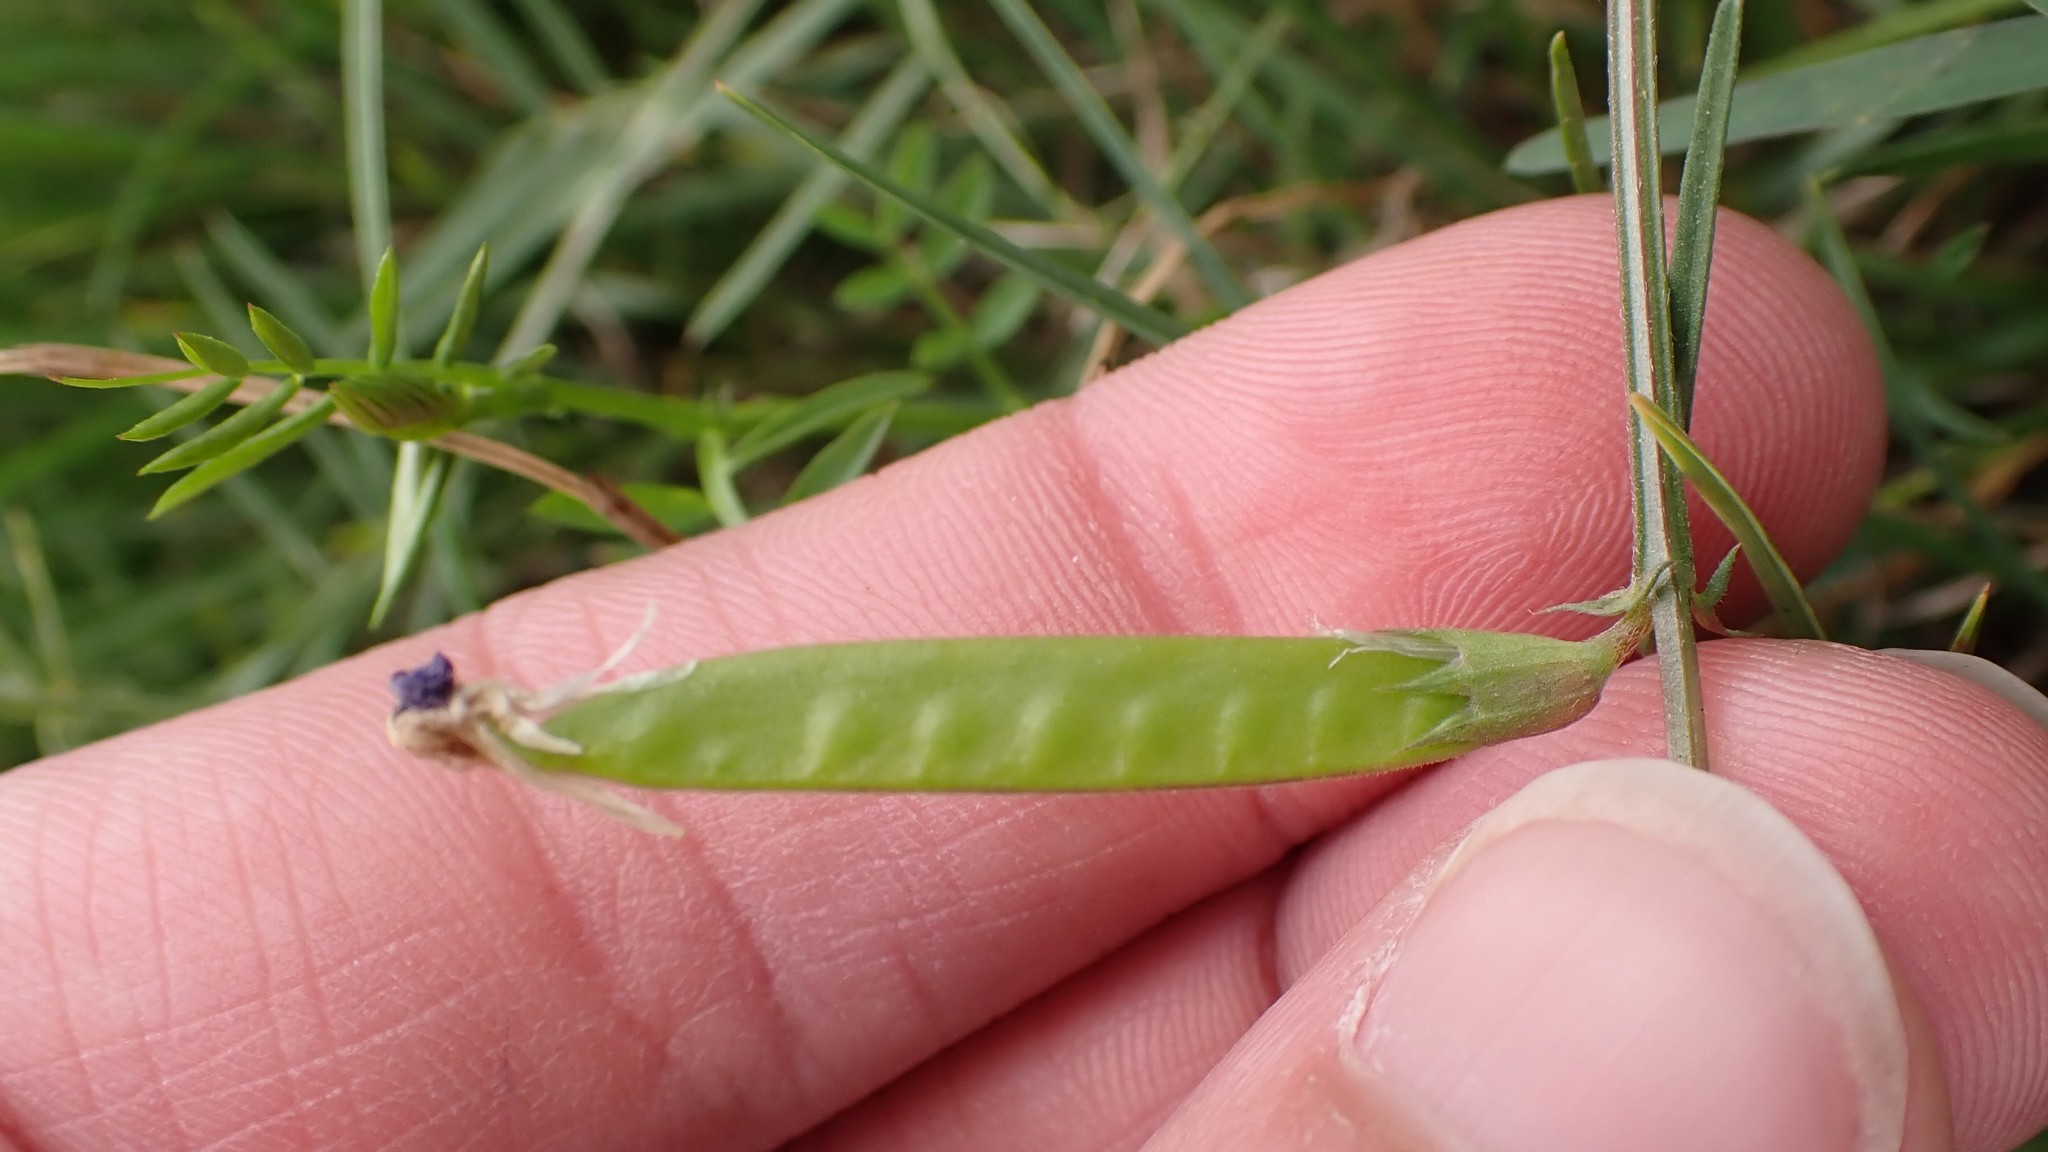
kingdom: Plantae
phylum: Tracheophyta
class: Magnoliopsida
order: Fabales
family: Fabaceae
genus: Vicia
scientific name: Vicia sativa
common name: Garden vetch
